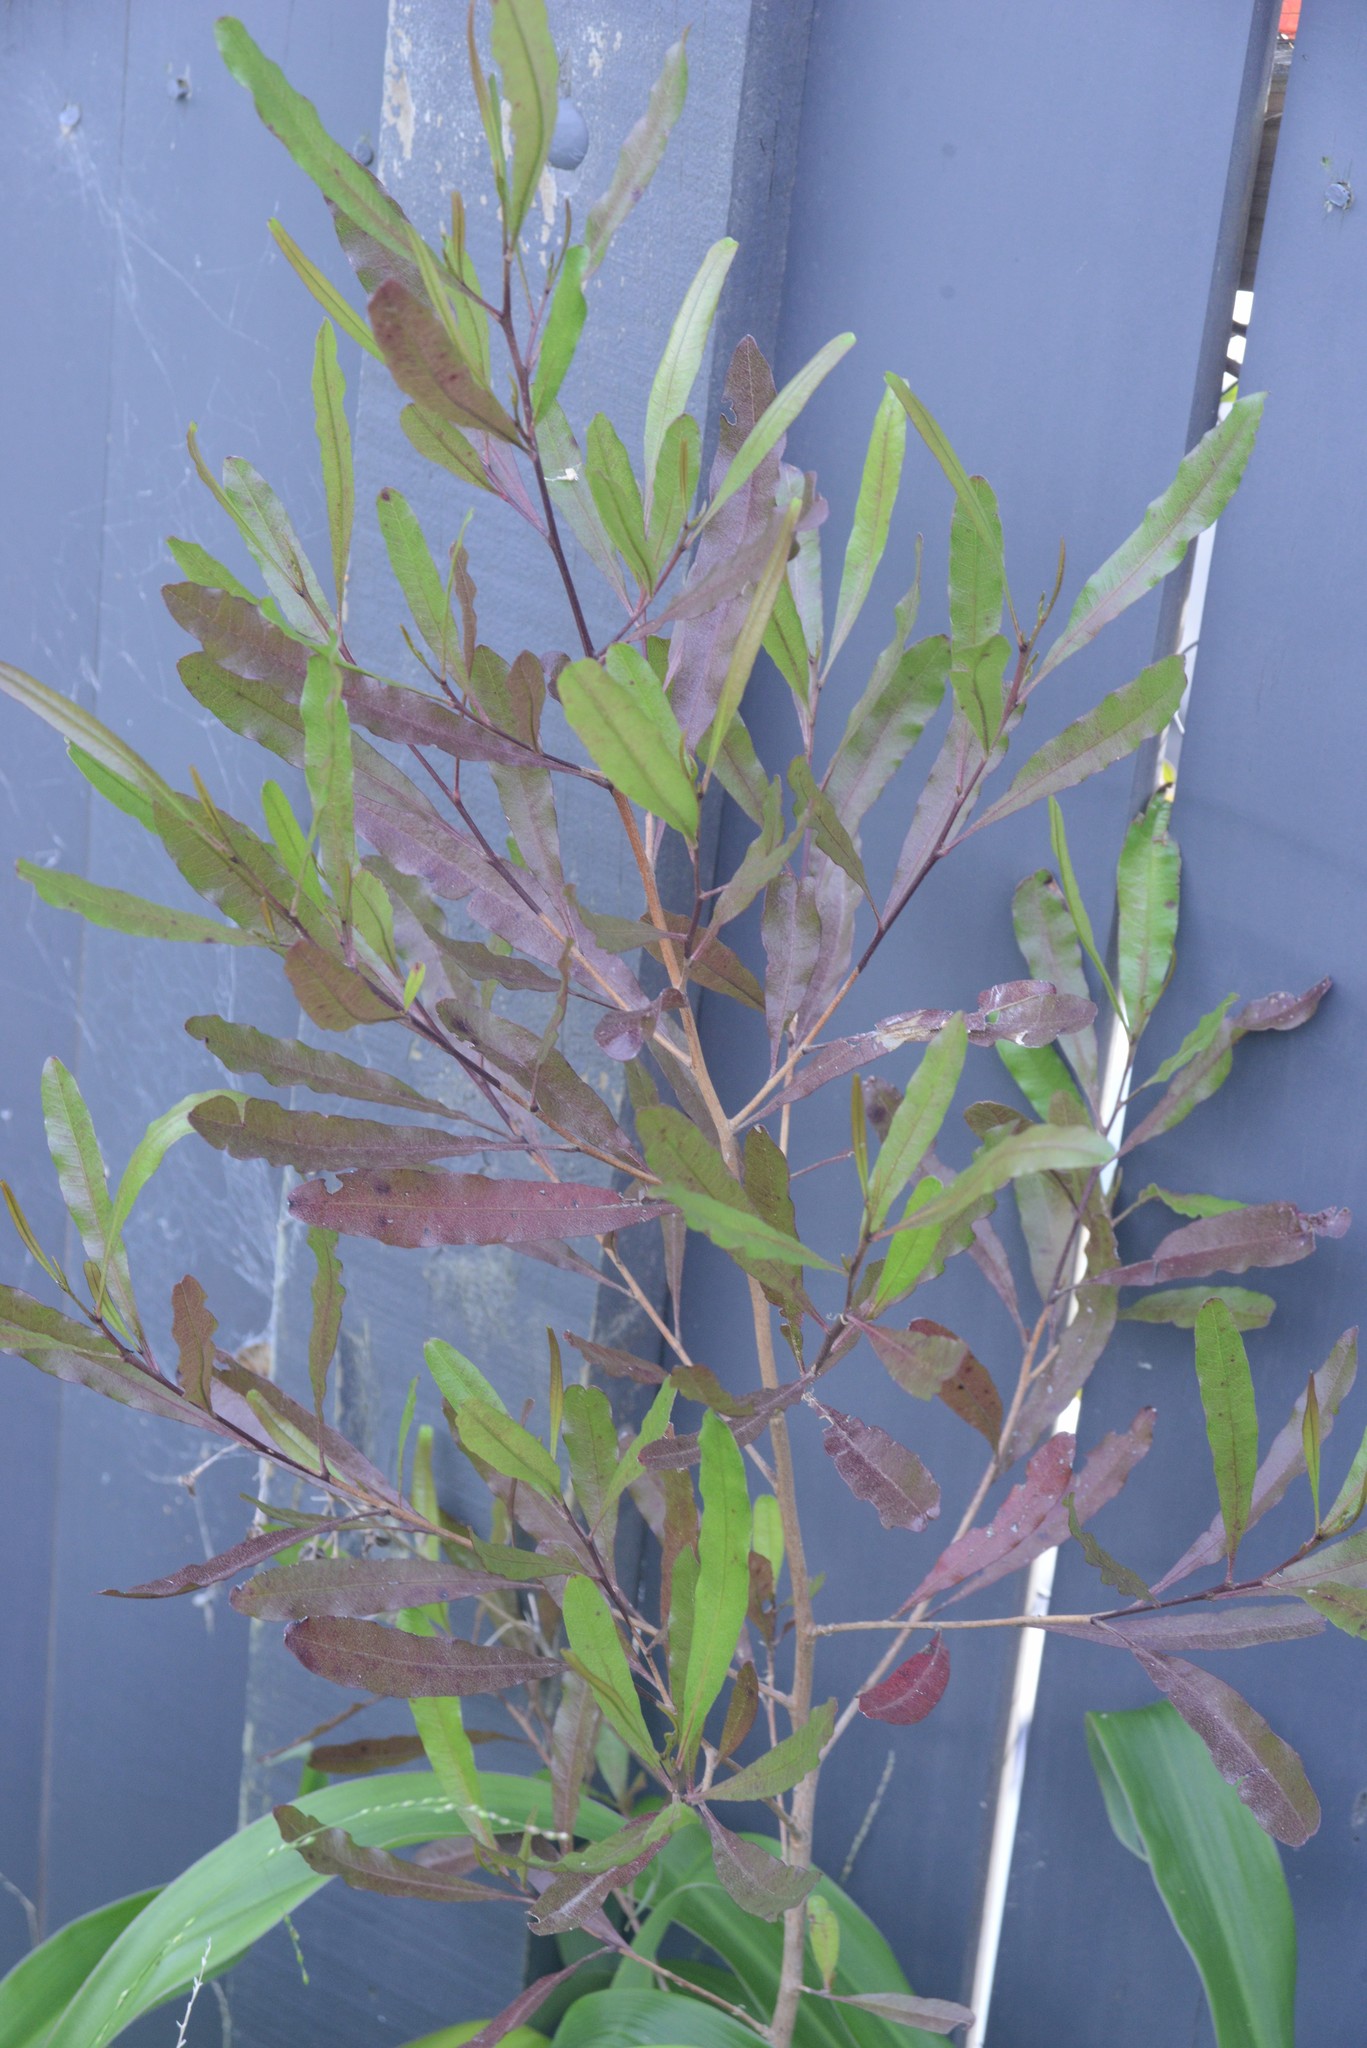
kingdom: Plantae
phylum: Tracheophyta
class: Magnoliopsida
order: Sapindales
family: Sapindaceae
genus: Dodonaea
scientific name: Dodonaea viscosa
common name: Hopbush
